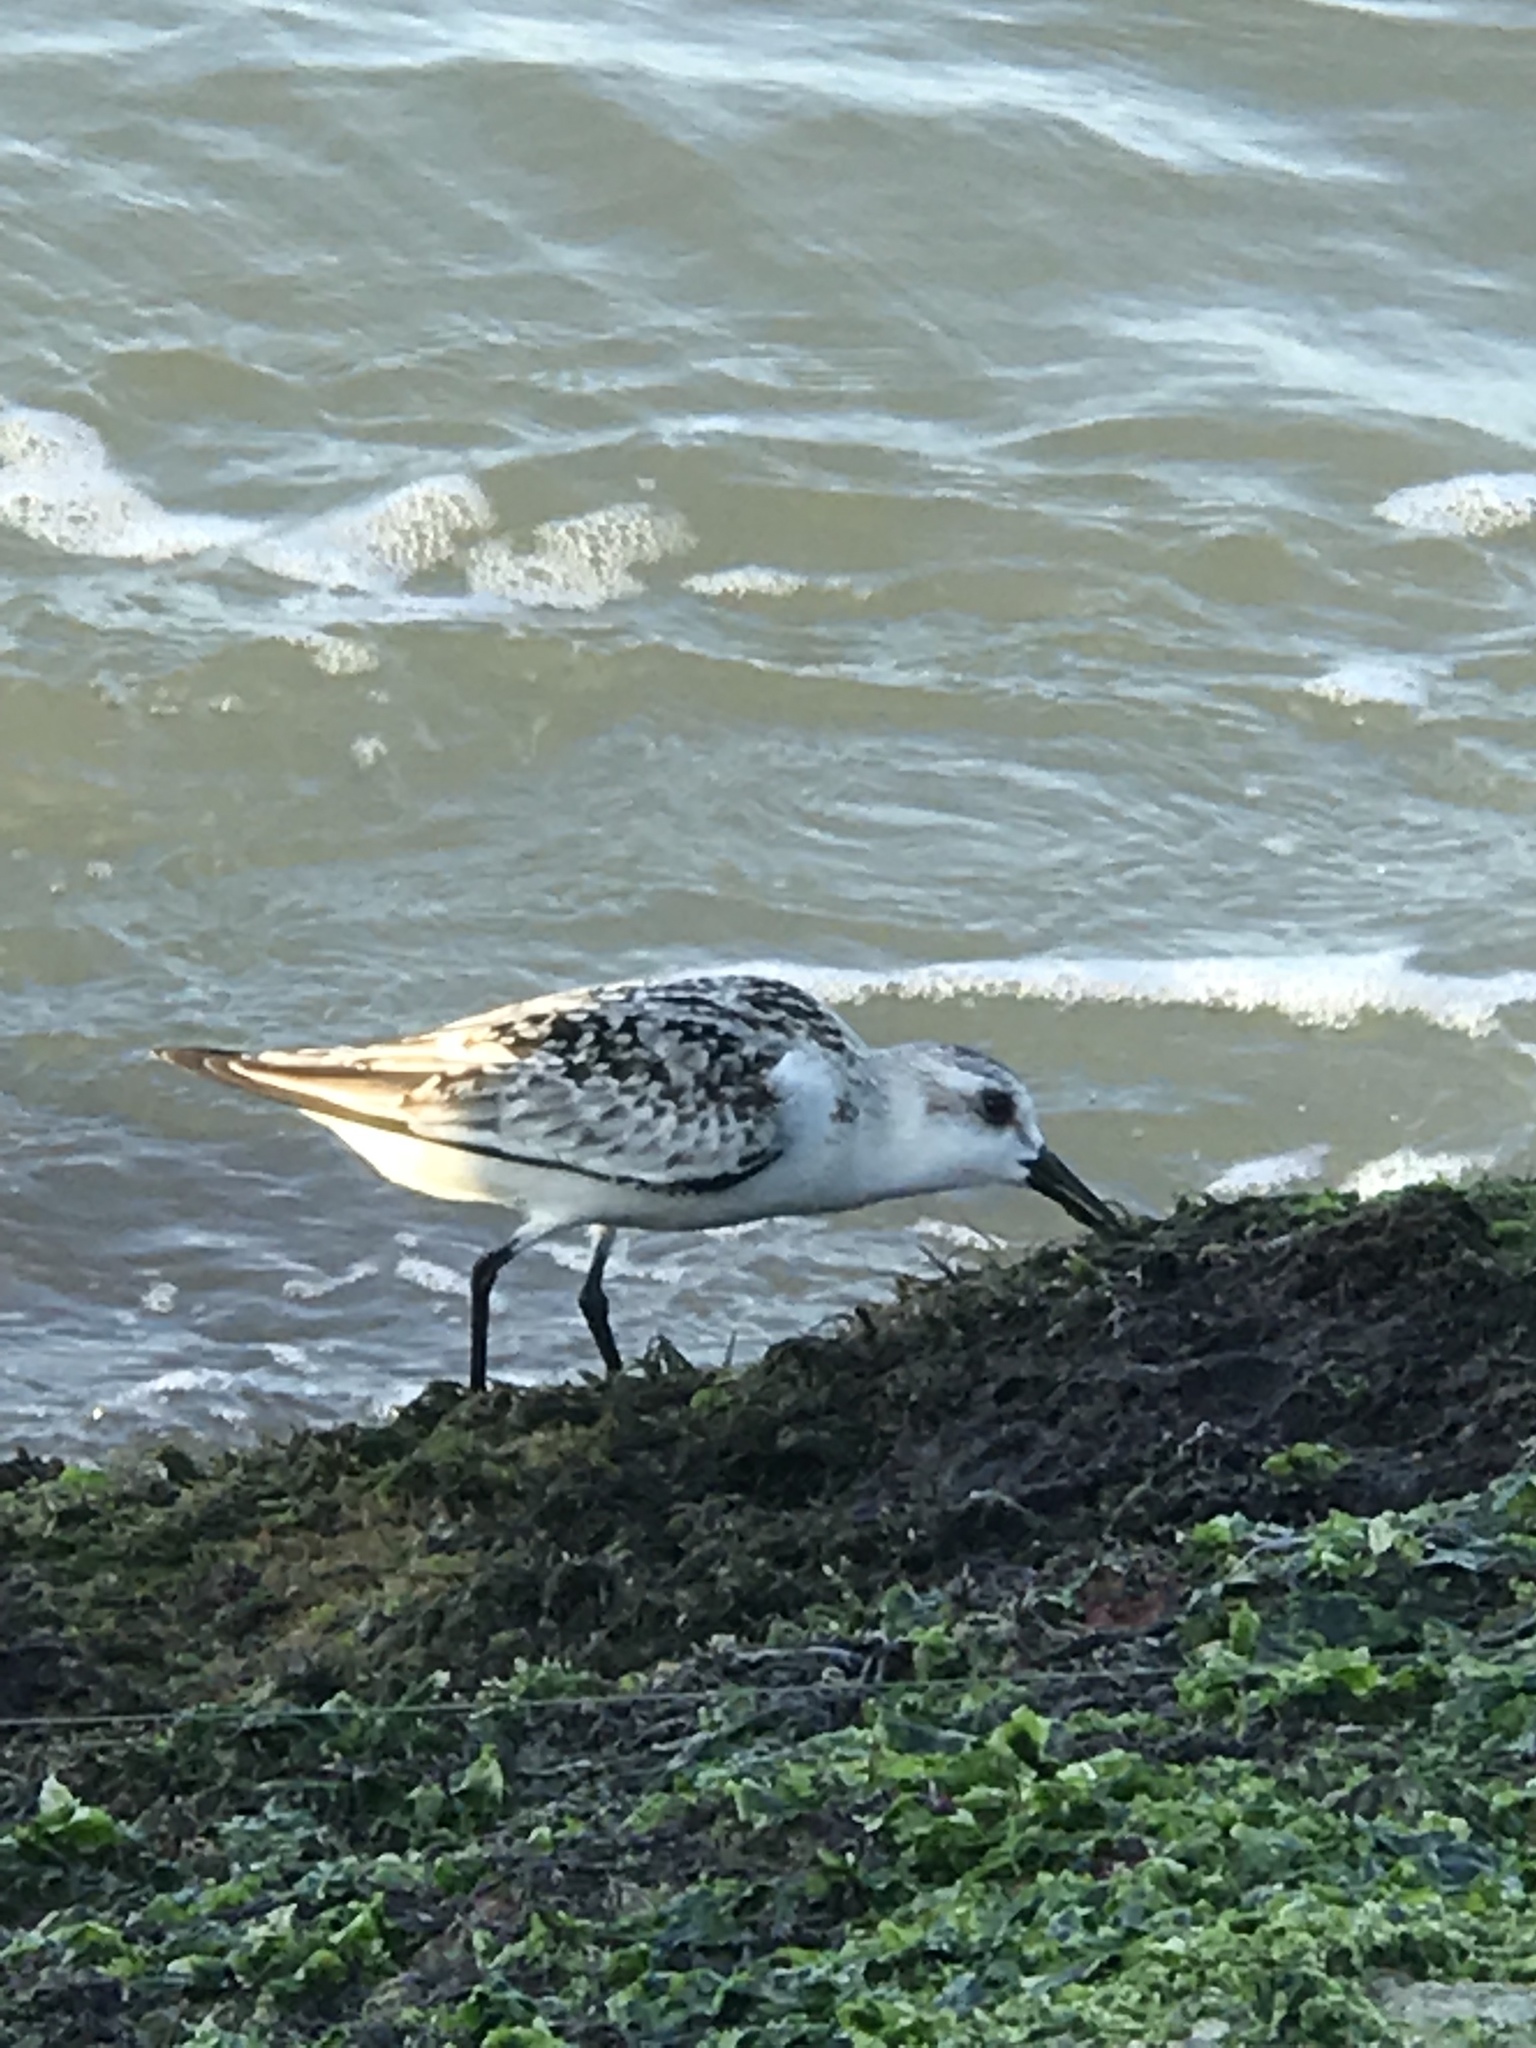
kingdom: Animalia
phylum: Chordata
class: Aves
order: Charadriiformes
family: Scolopacidae
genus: Calidris
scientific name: Calidris alba
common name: Sanderling
